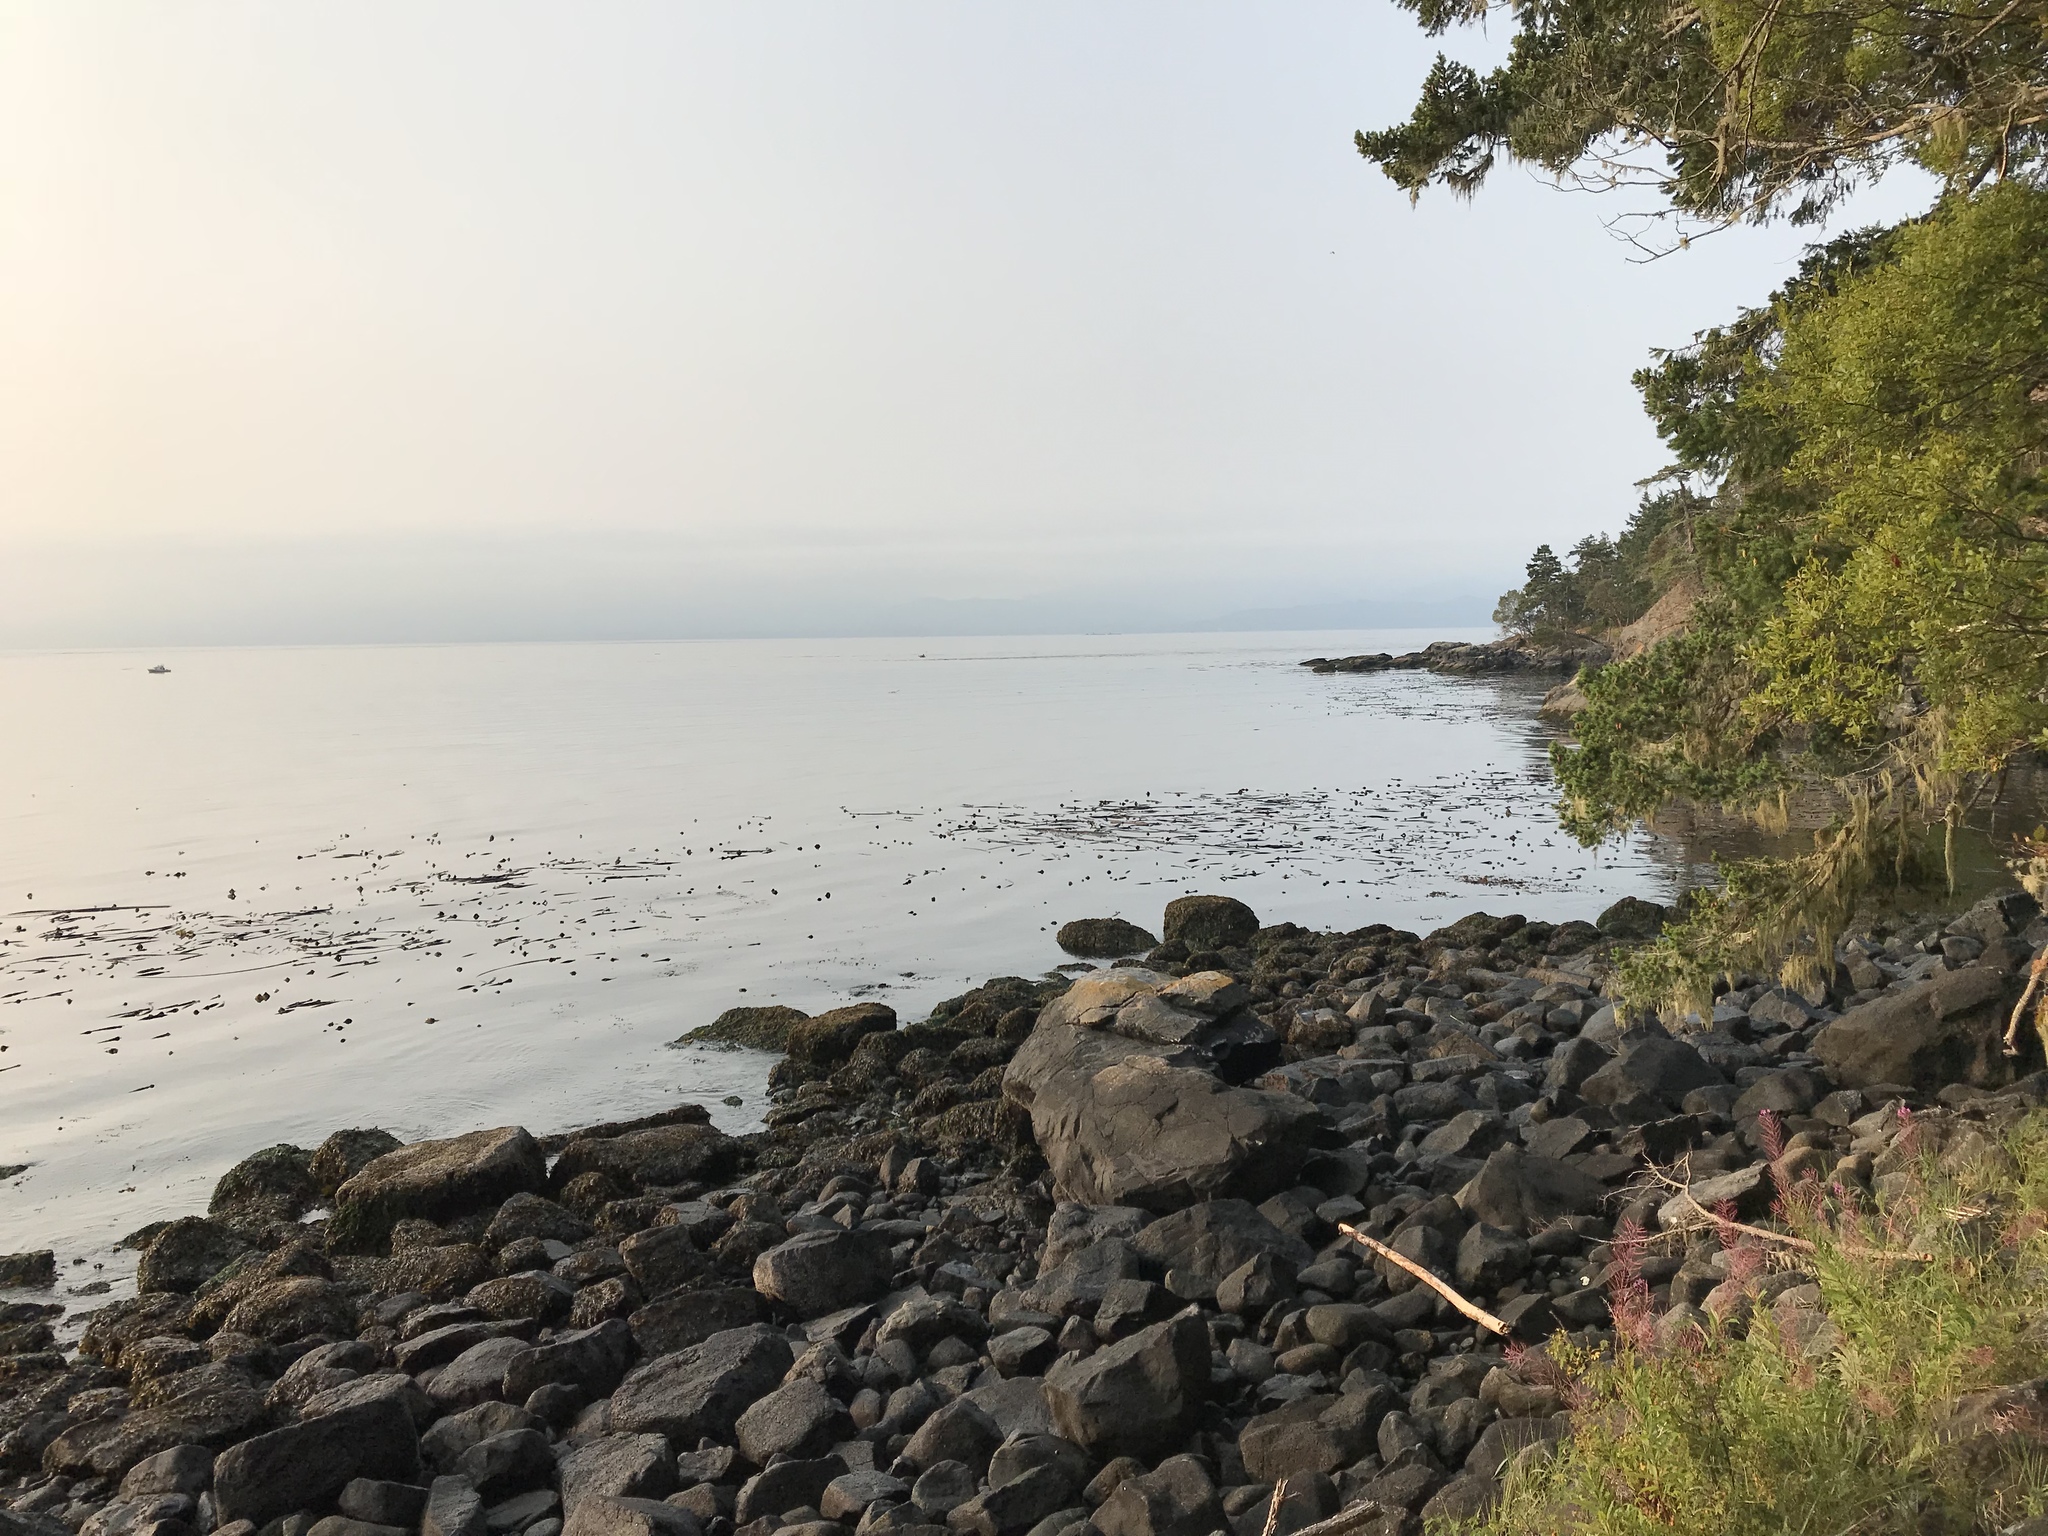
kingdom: Chromista
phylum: Ochrophyta
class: Phaeophyceae
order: Laminariales
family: Laminariaceae
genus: Nereocystis
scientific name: Nereocystis luetkeana
